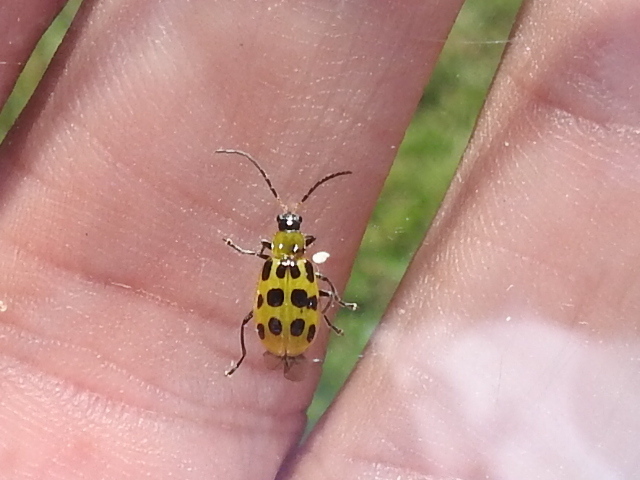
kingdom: Animalia
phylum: Arthropoda
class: Insecta
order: Coleoptera
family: Chrysomelidae
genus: Diabrotica
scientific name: Diabrotica undecimpunctata
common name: Spotted cucumber beetle
